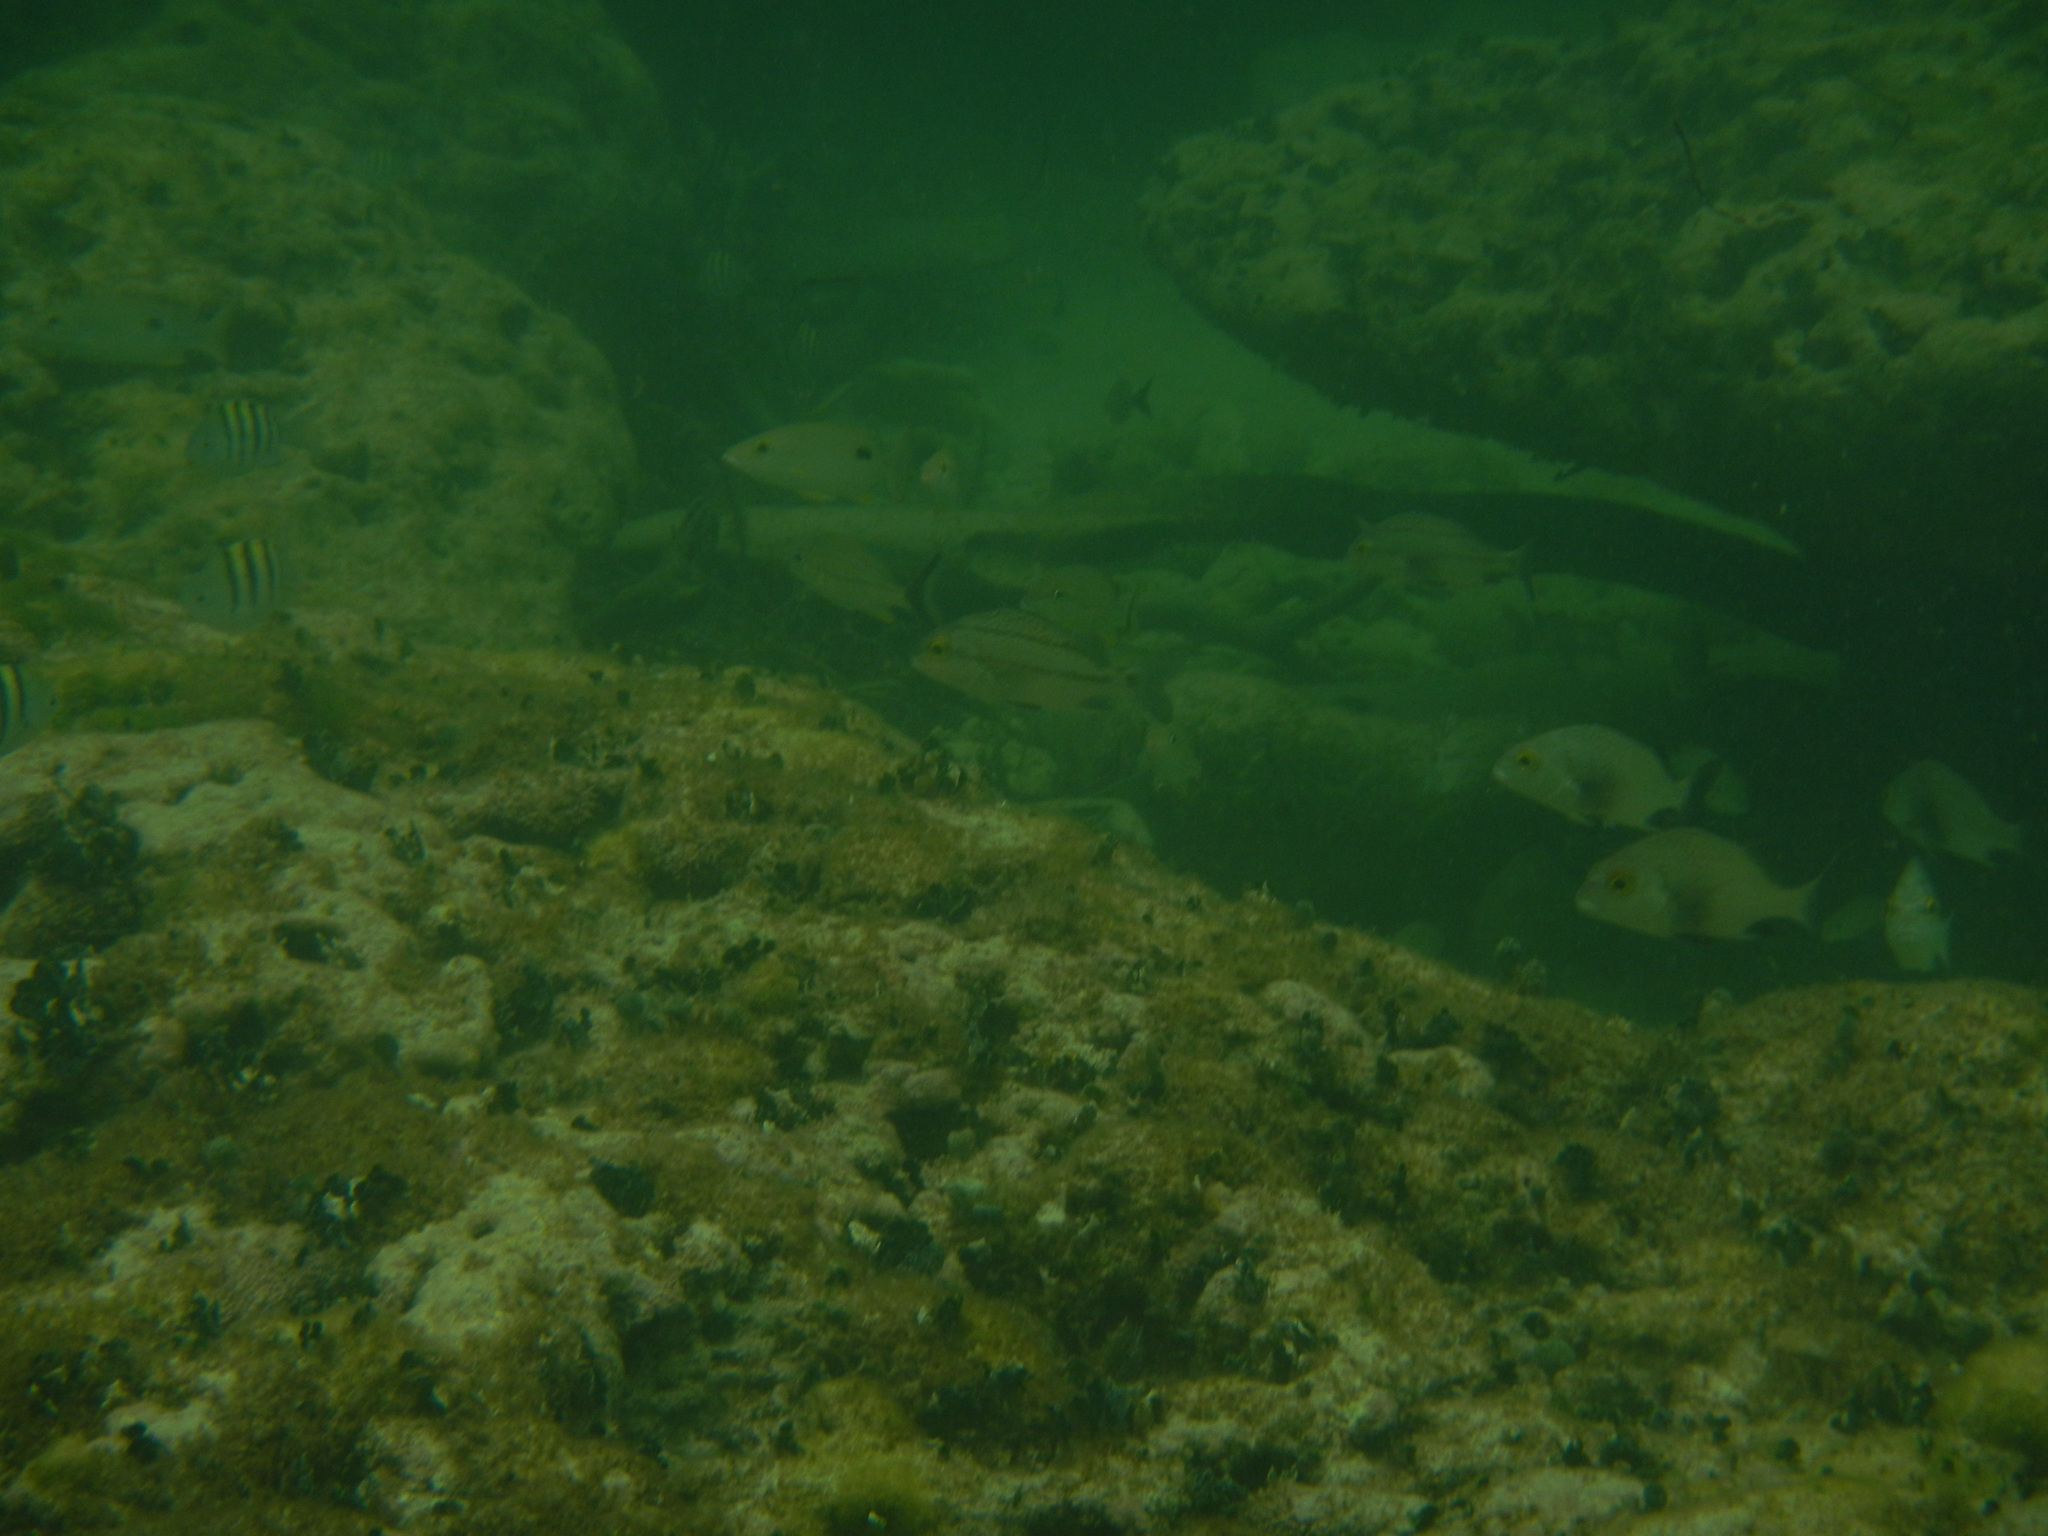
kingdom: Animalia
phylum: Chordata
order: Perciformes
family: Haemulidae
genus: Anisotremus
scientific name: Anisotremus surinamensis
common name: Black margate
